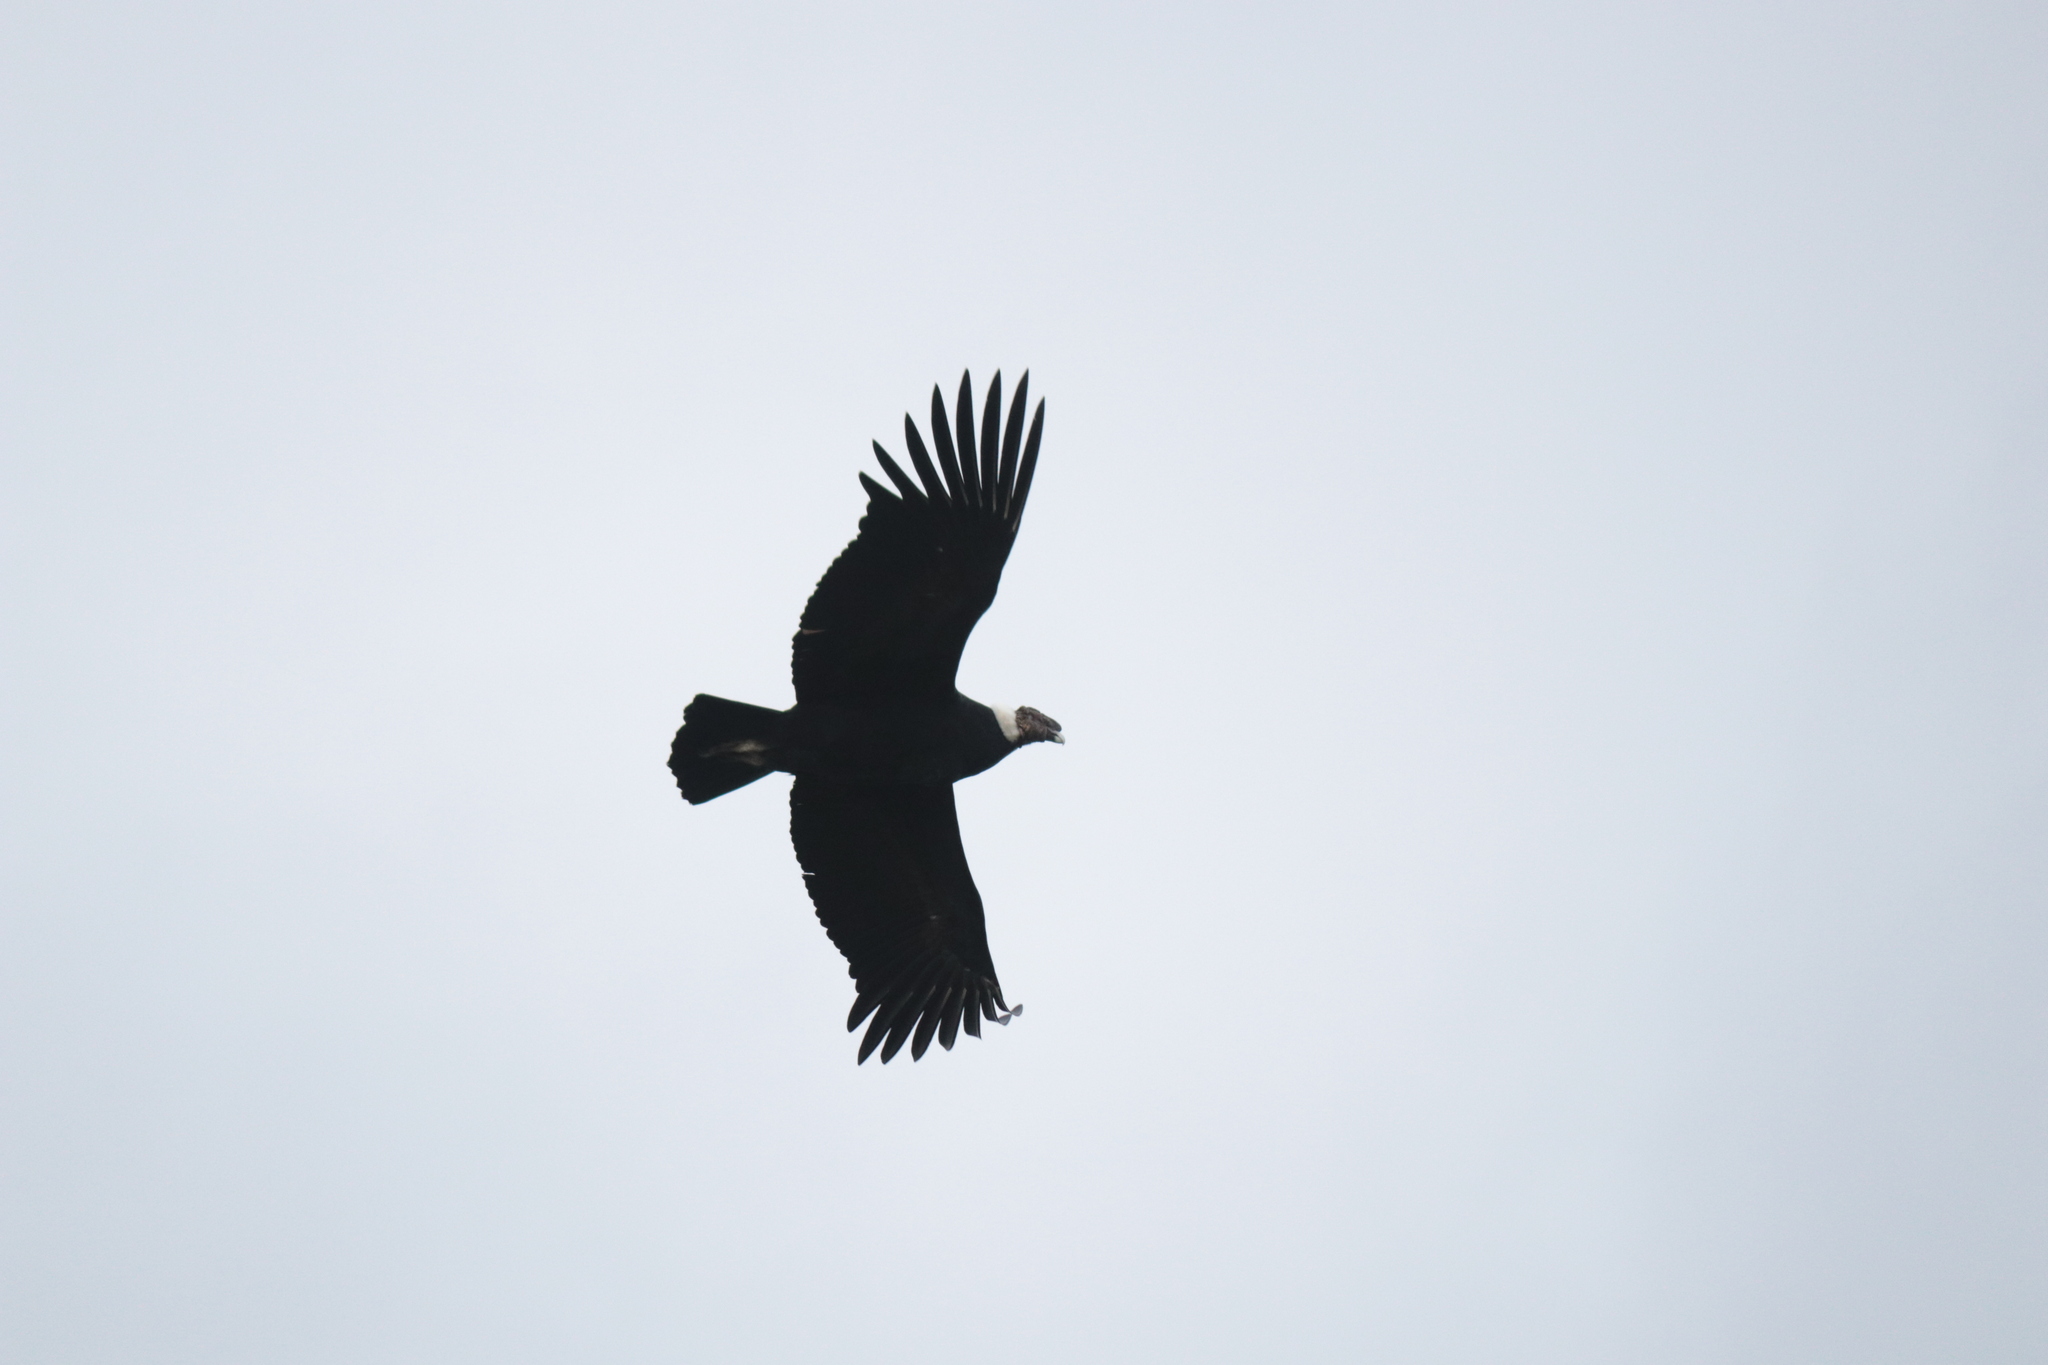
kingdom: Animalia
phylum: Chordata
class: Aves
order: Accipitriformes
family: Cathartidae
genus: Vultur
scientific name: Vultur gryphus
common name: Andean condor
